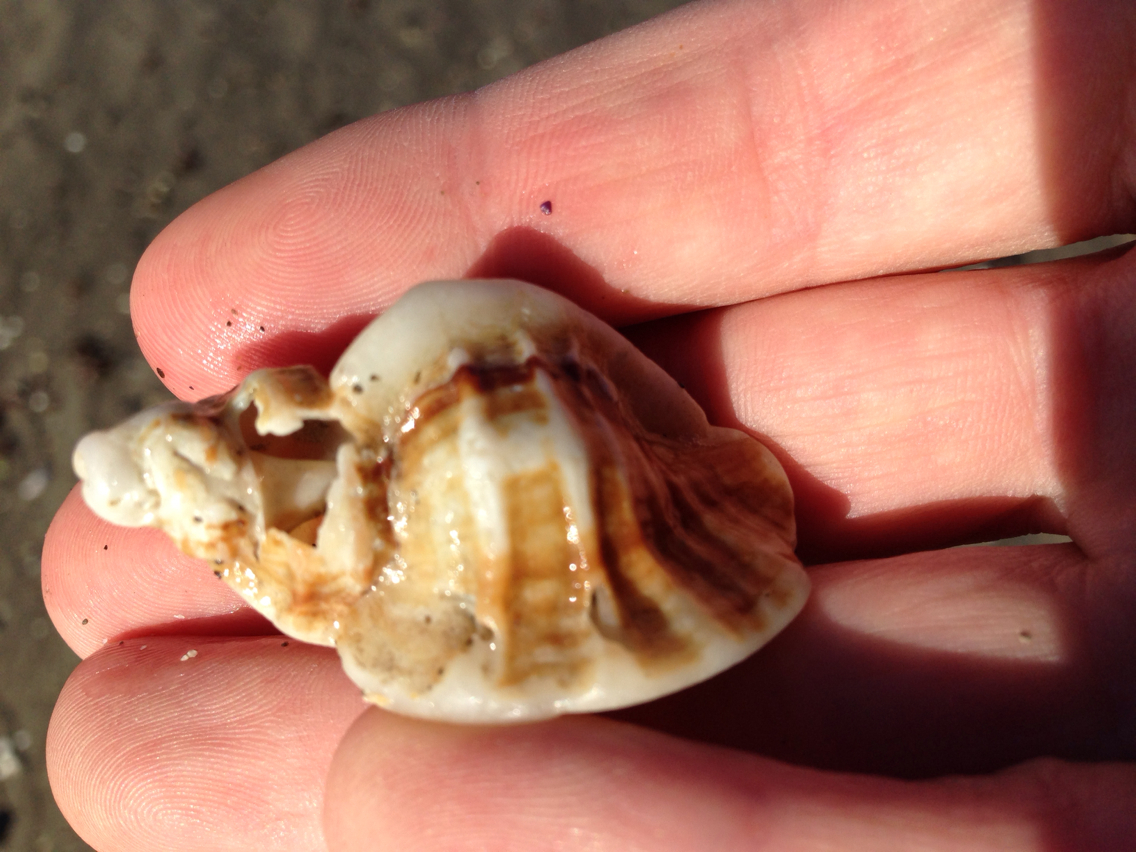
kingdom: Animalia
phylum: Mollusca
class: Gastropoda
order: Neogastropoda
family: Muricidae
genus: Ceratostoma
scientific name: Ceratostoma foliatum
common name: Foliate thorn purpura
